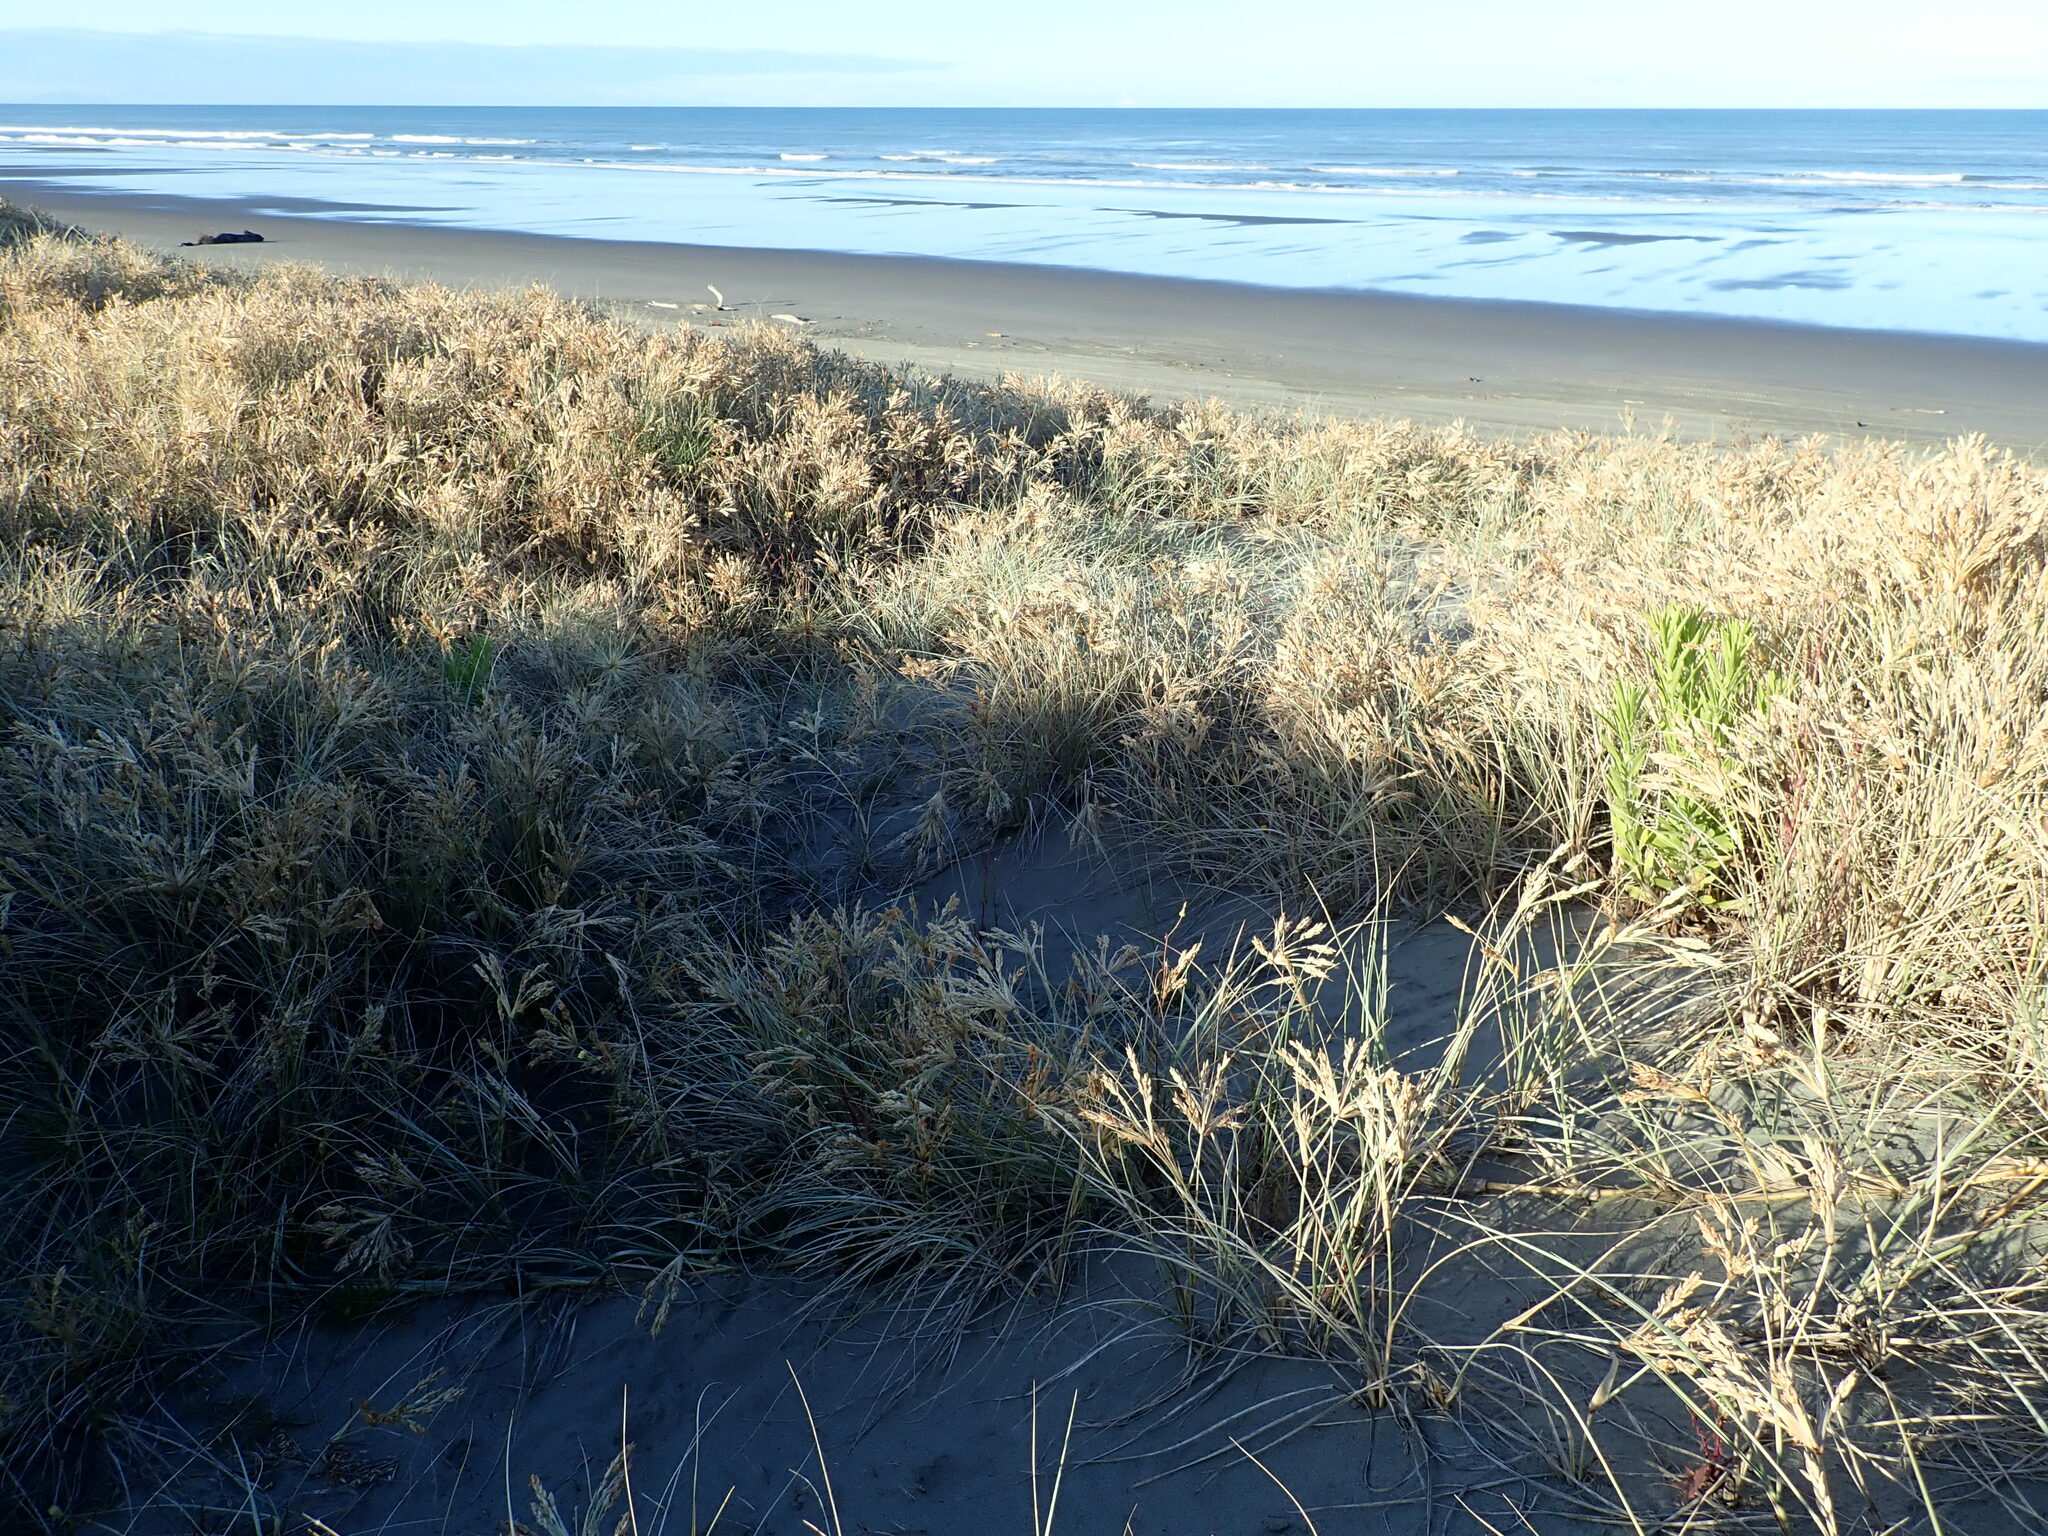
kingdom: Plantae
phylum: Tracheophyta
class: Magnoliopsida
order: Asterales
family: Asteraceae
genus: Erigeron
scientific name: Erigeron sumatrensis
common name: Daisy
